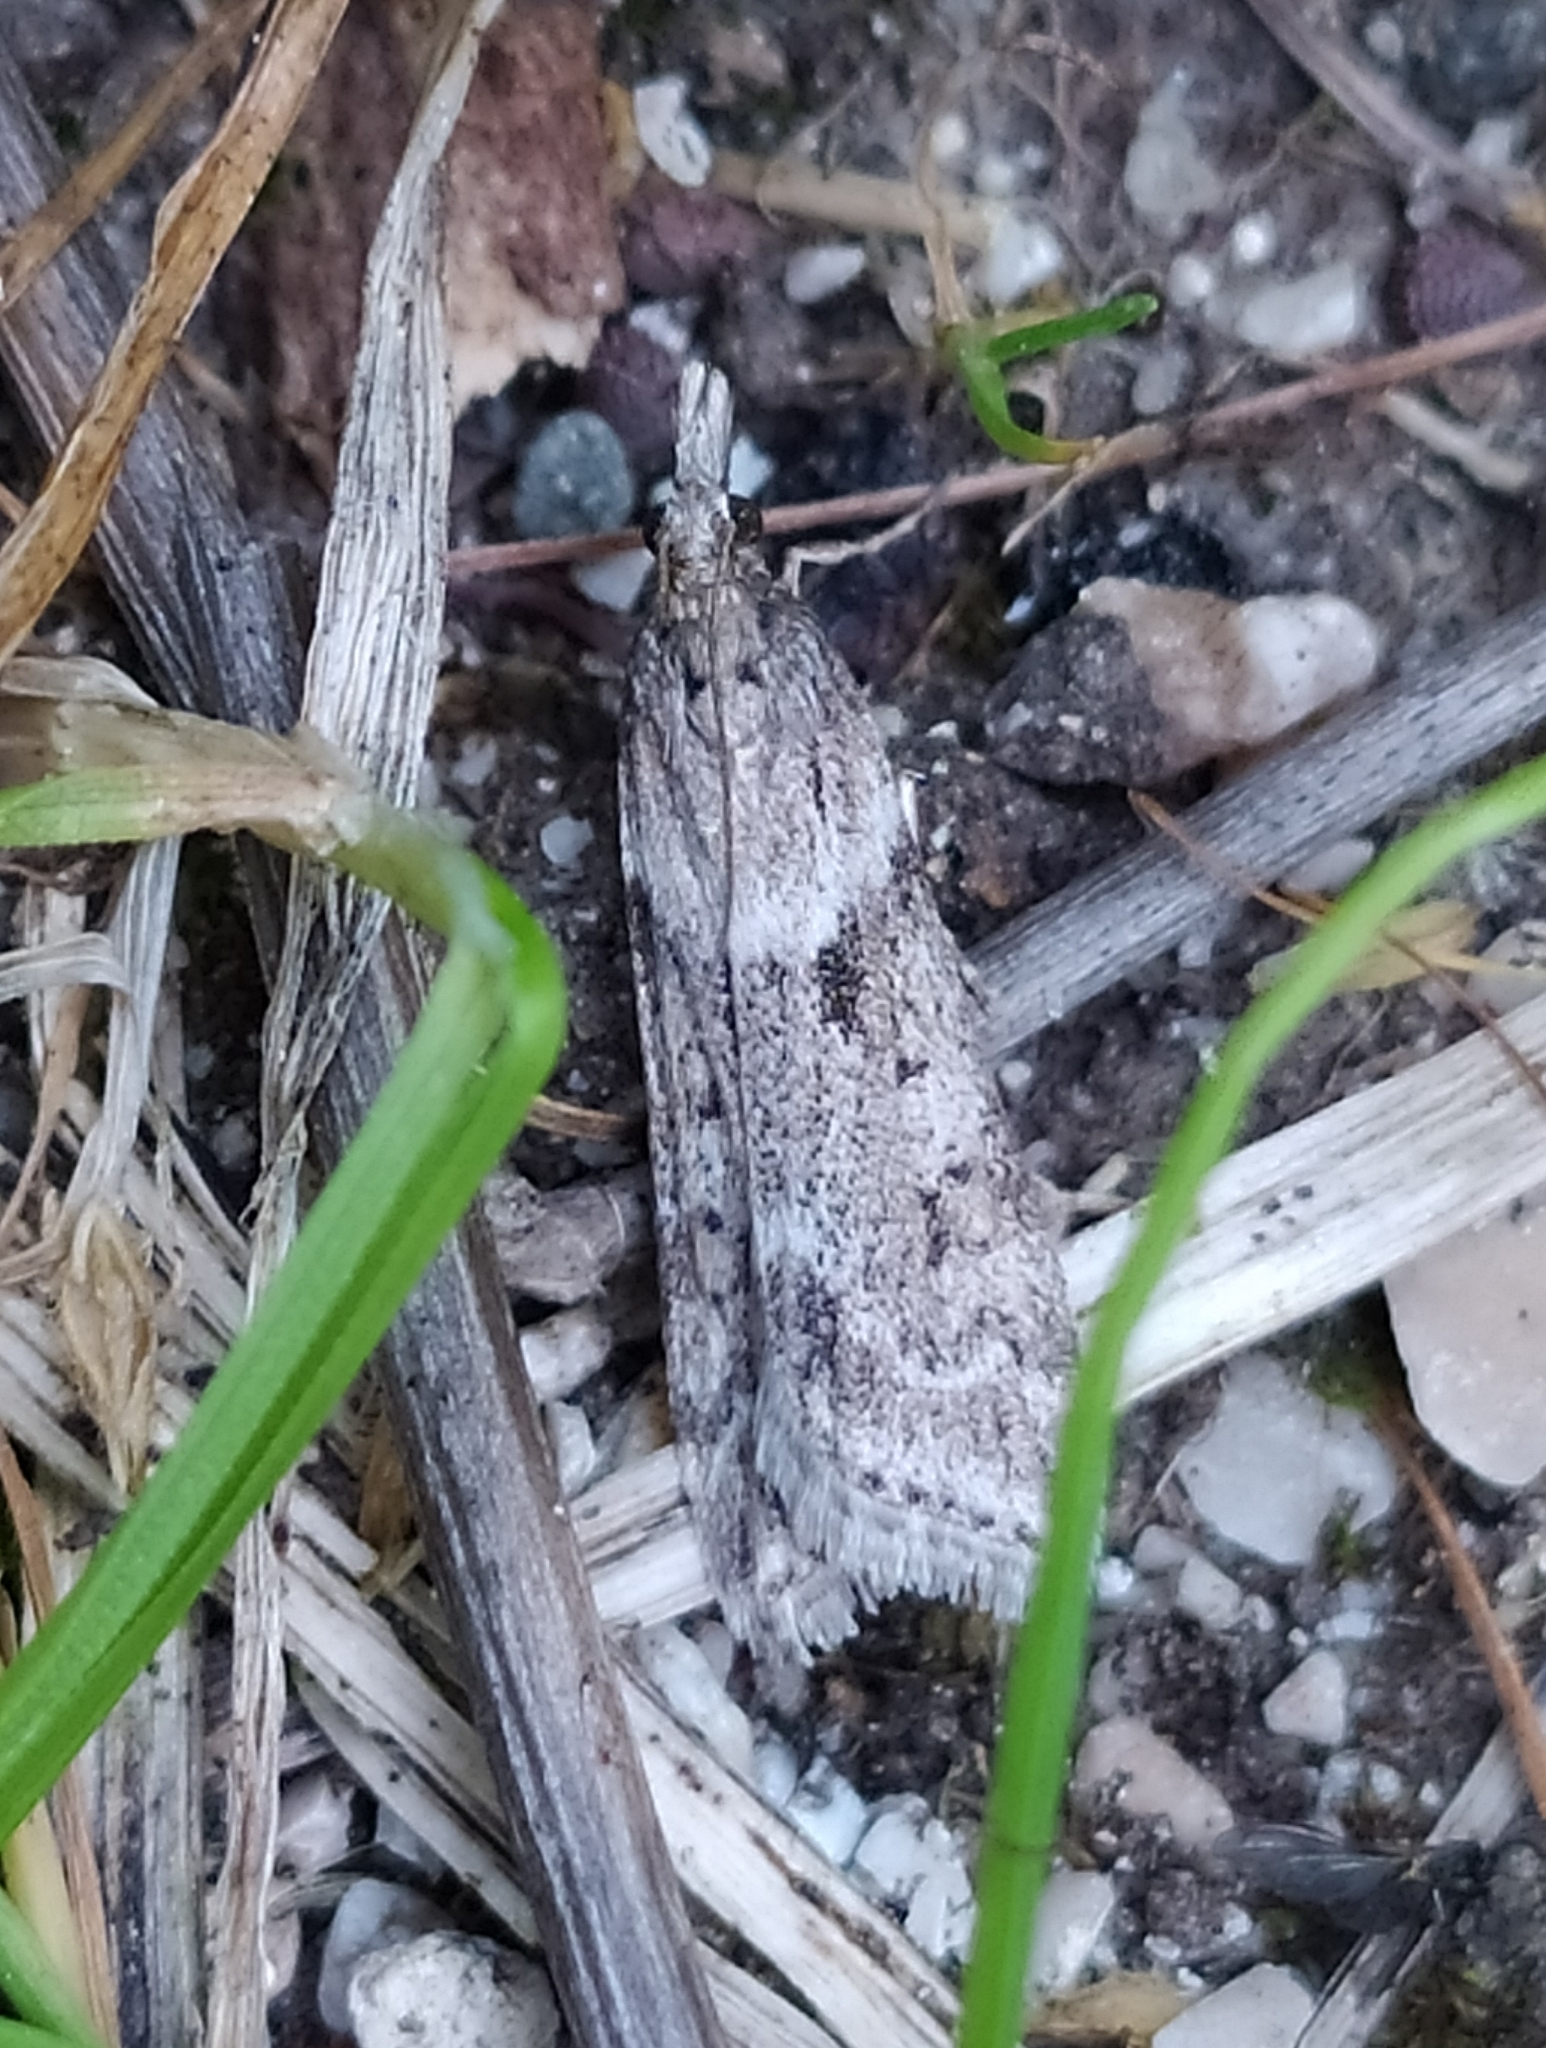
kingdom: Animalia
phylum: Arthropoda
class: Insecta
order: Lepidoptera
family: Crambidae
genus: Eudonia
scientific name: Eudonia angustea
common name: Narrow-winged grey
